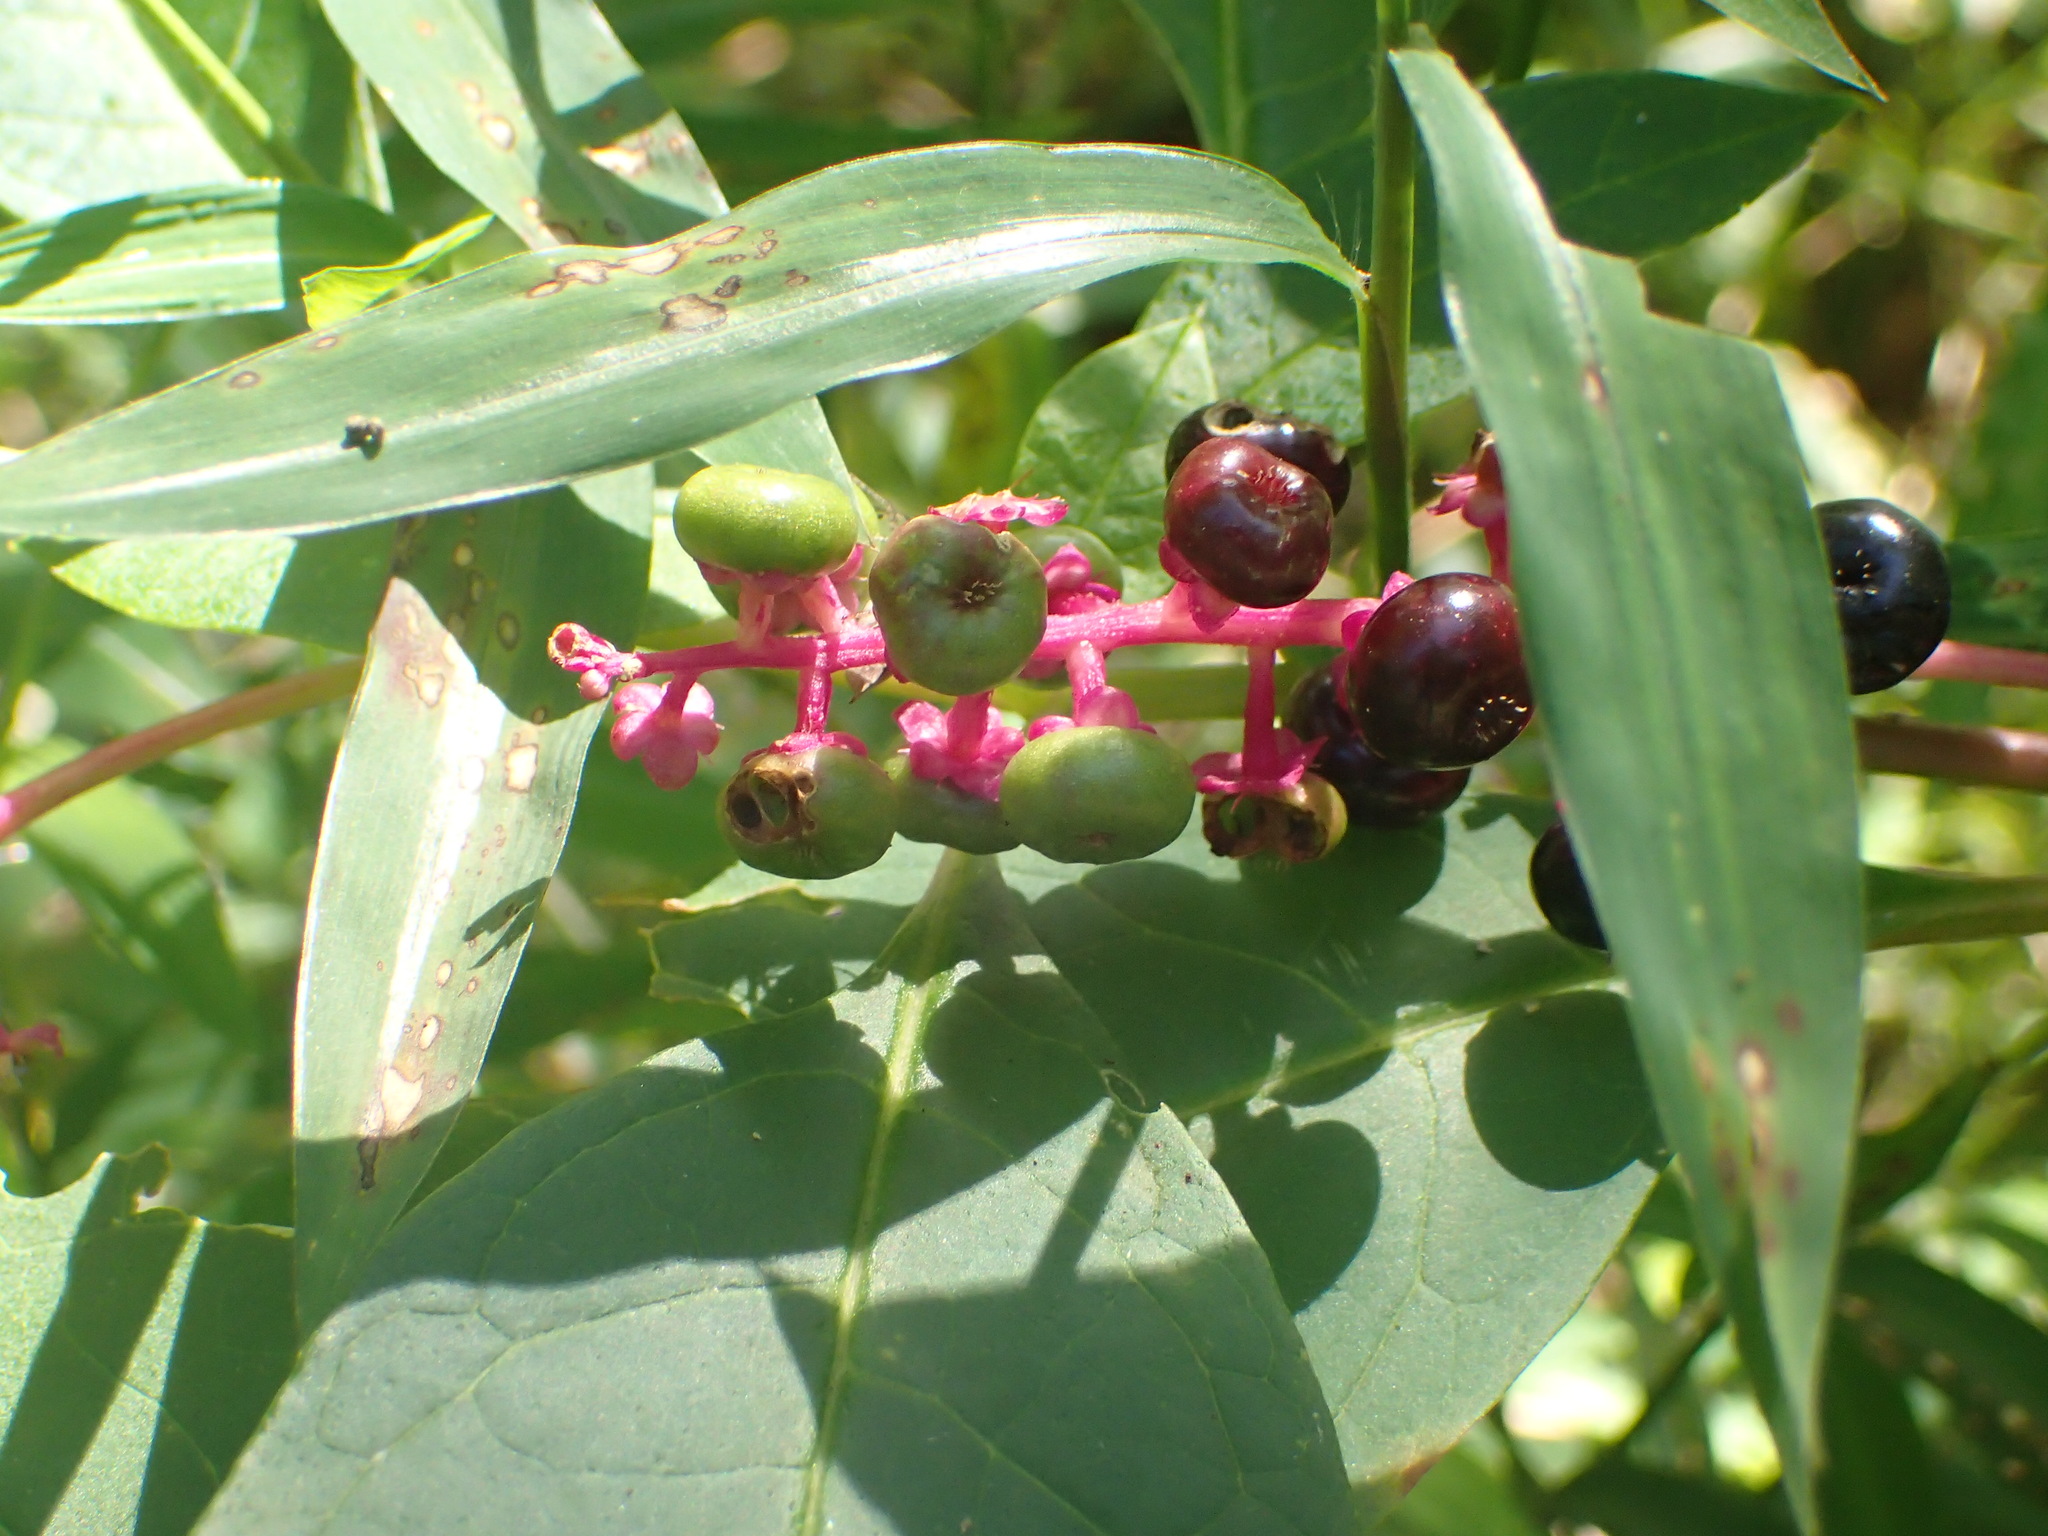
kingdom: Plantae
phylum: Tracheophyta
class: Magnoliopsida
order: Caryophyllales
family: Phytolaccaceae
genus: Phytolacca
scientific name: Phytolacca americana
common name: American pokeweed
